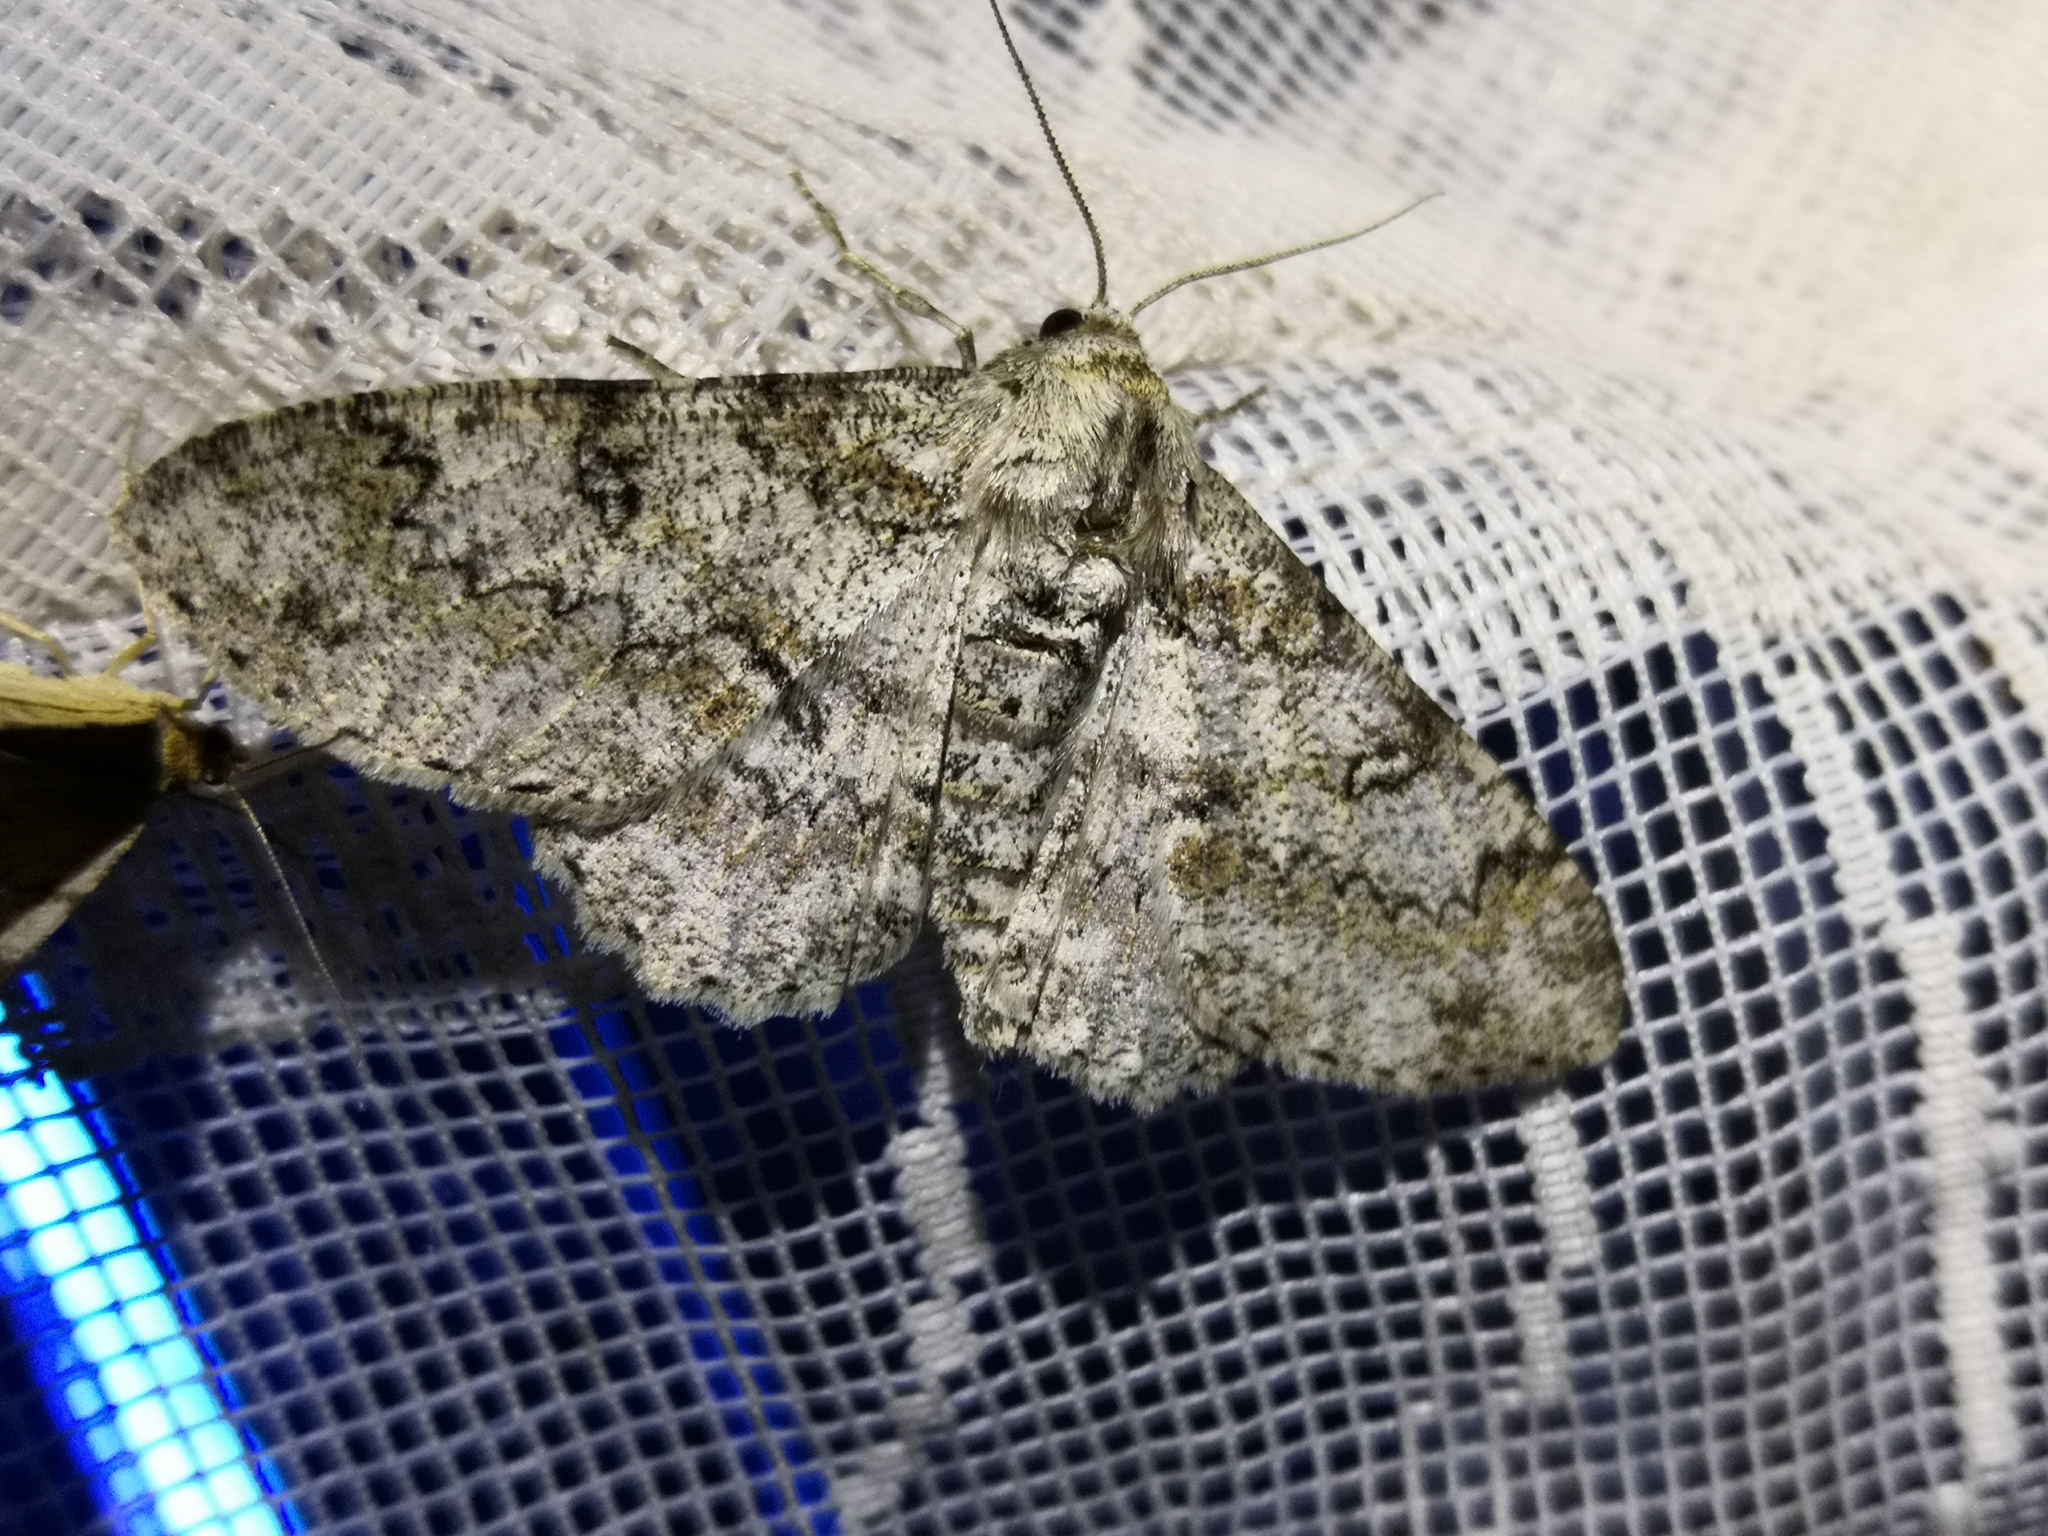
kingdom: Animalia
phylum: Arthropoda
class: Insecta
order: Lepidoptera
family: Geometridae
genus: Ascotis
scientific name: Ascotis selenaria
